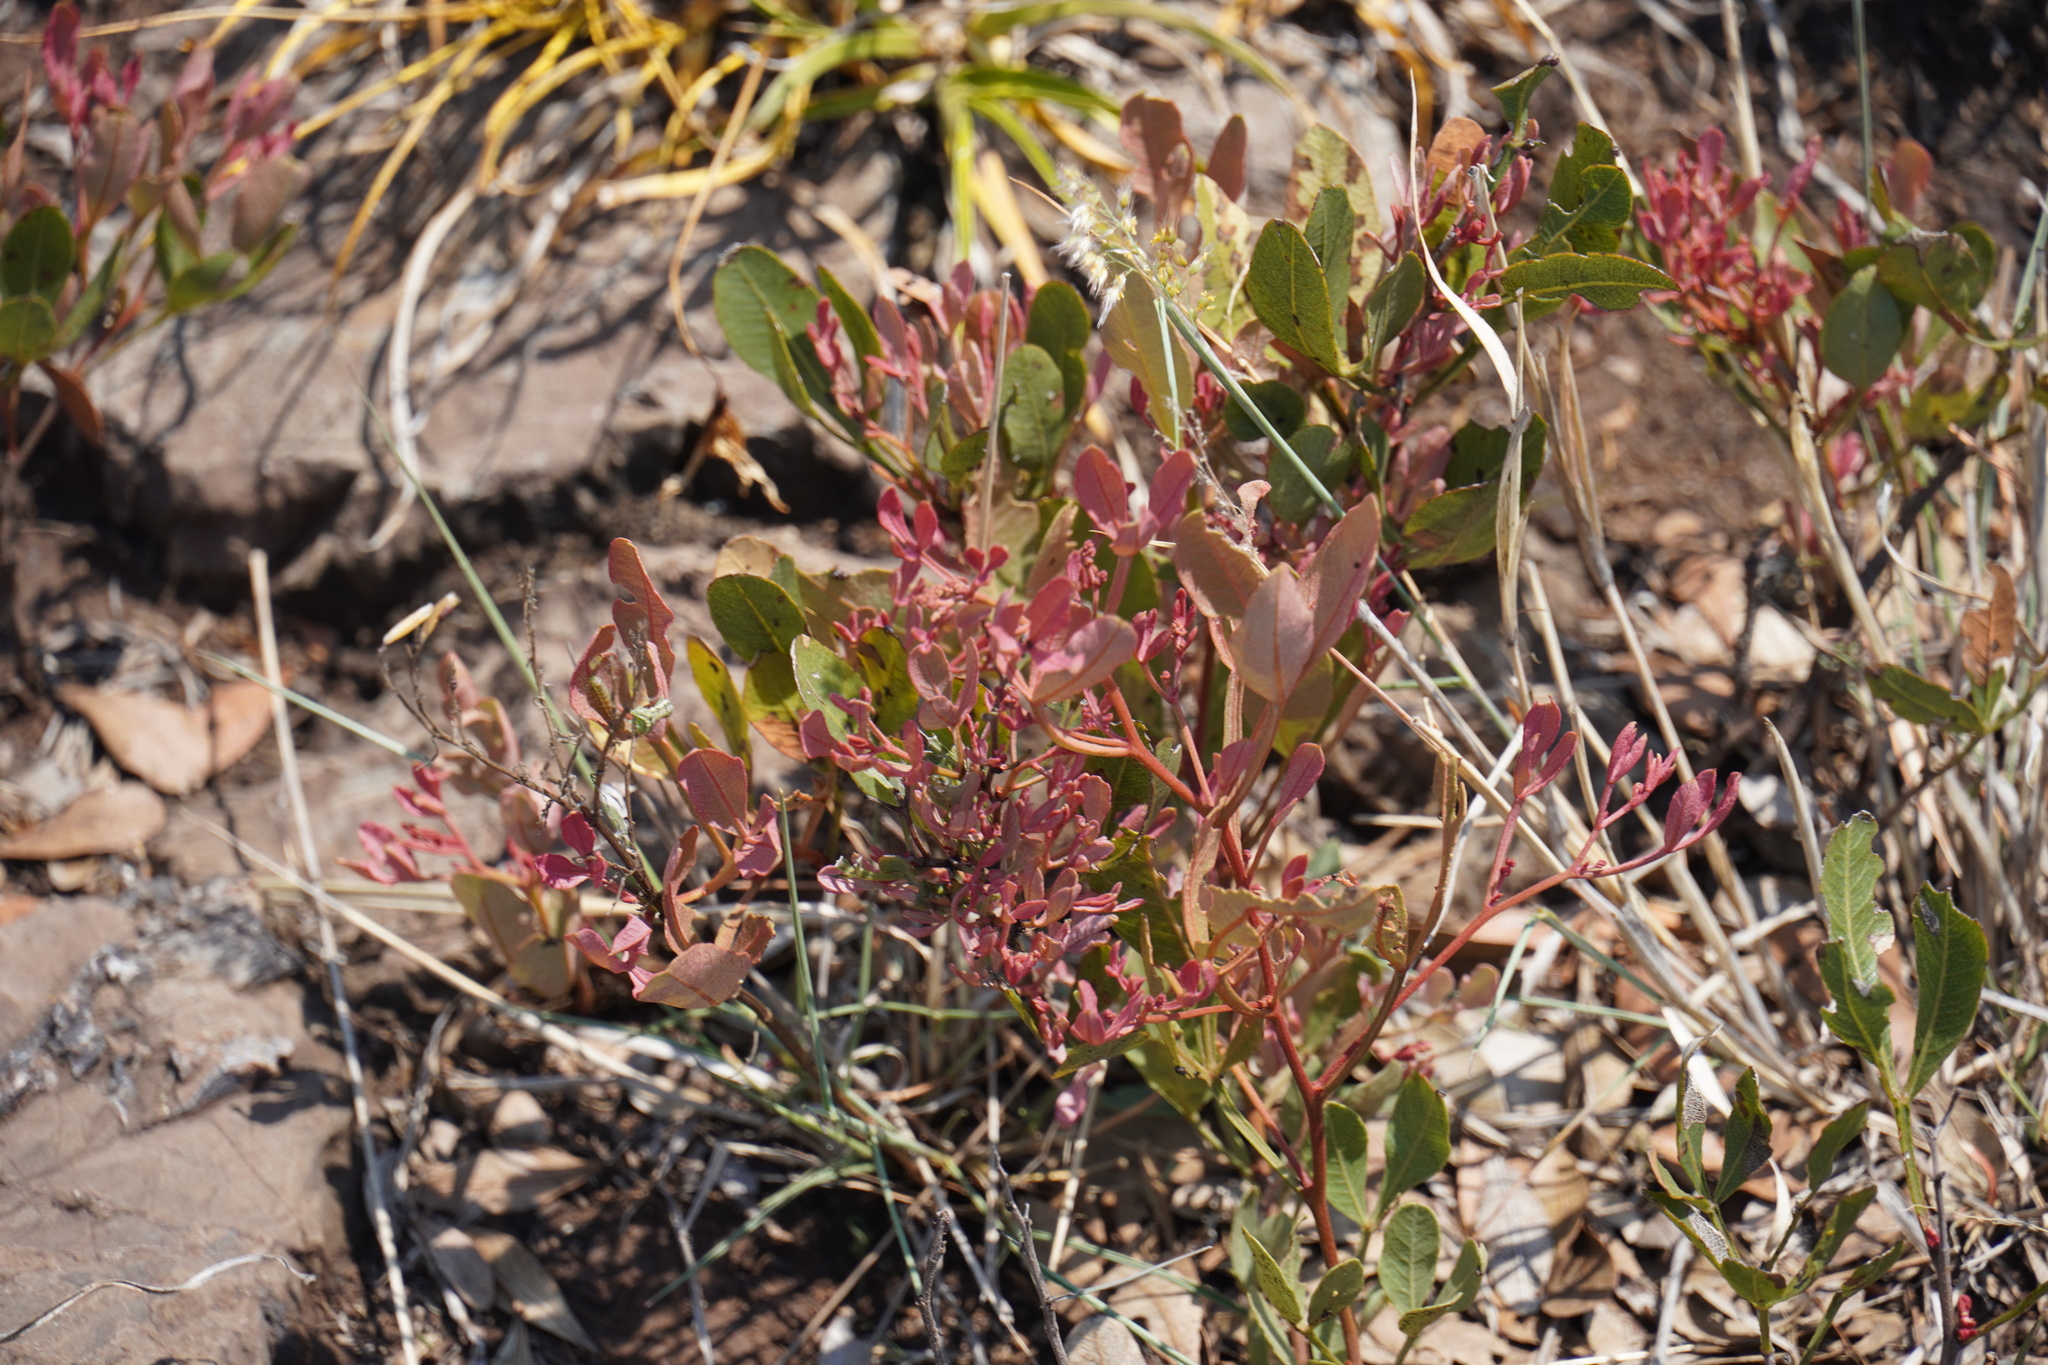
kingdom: Plantae
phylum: Tracheophyta
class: Magnoliopsida
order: Sapindales
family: Anacardiaceae
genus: Searsia
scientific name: Searsia magalismontana
